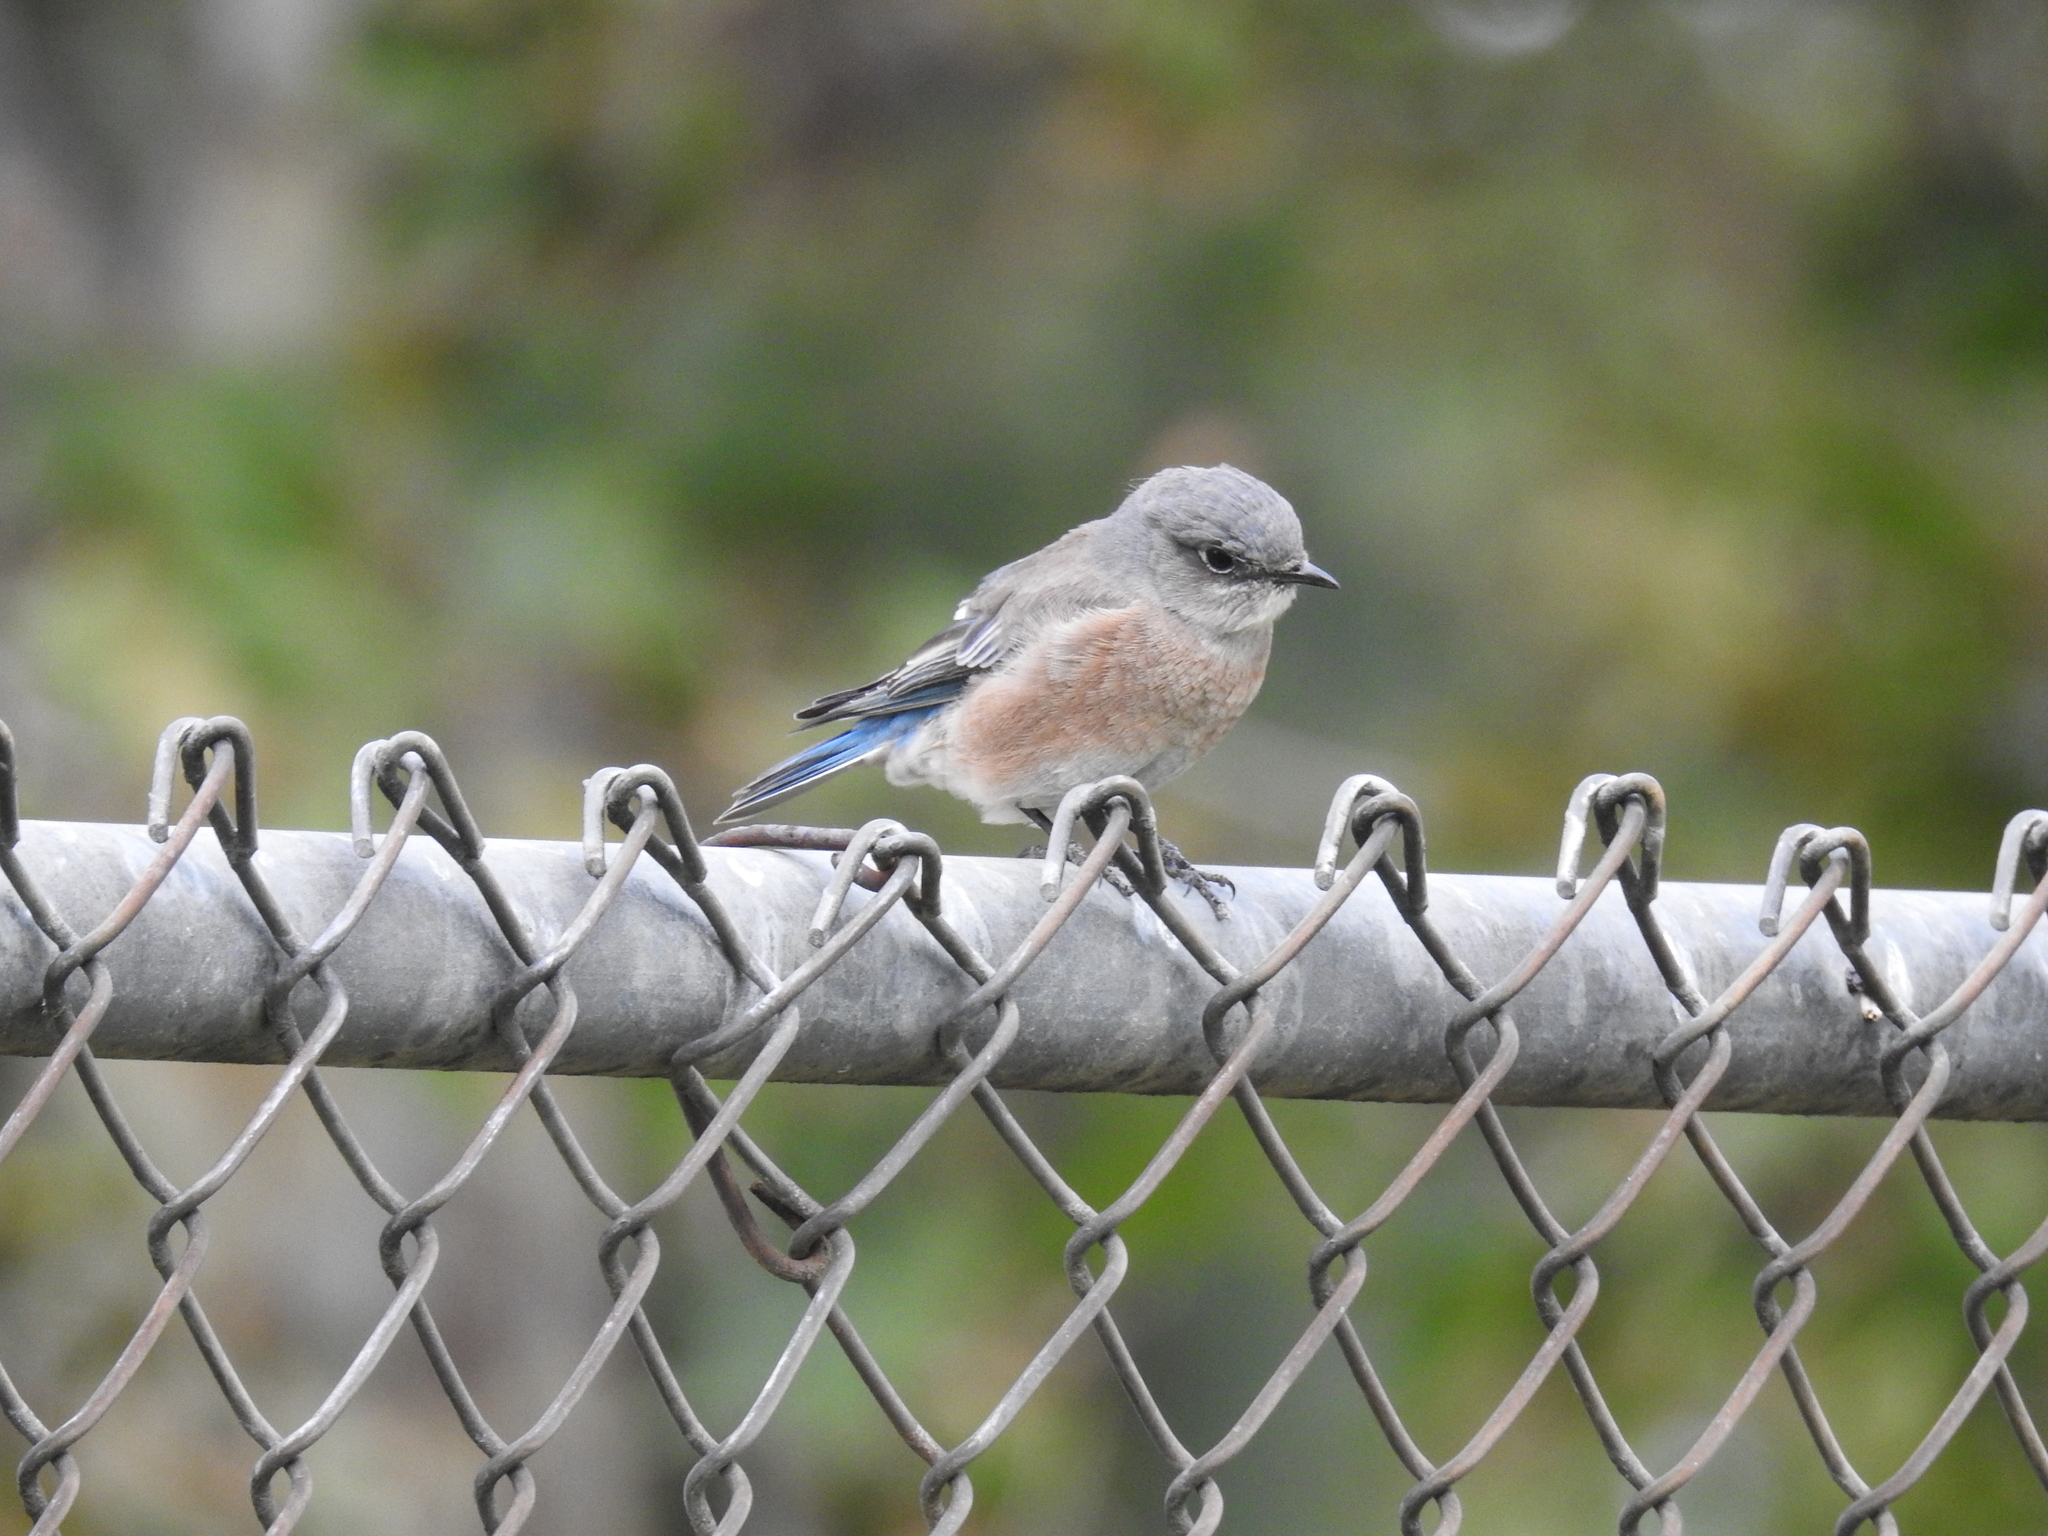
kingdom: Animalia
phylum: Chordata
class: Aves
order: Passeriformes
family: Turdidae
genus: Sialia
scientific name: Sialia mexicana
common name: Western bluebird
